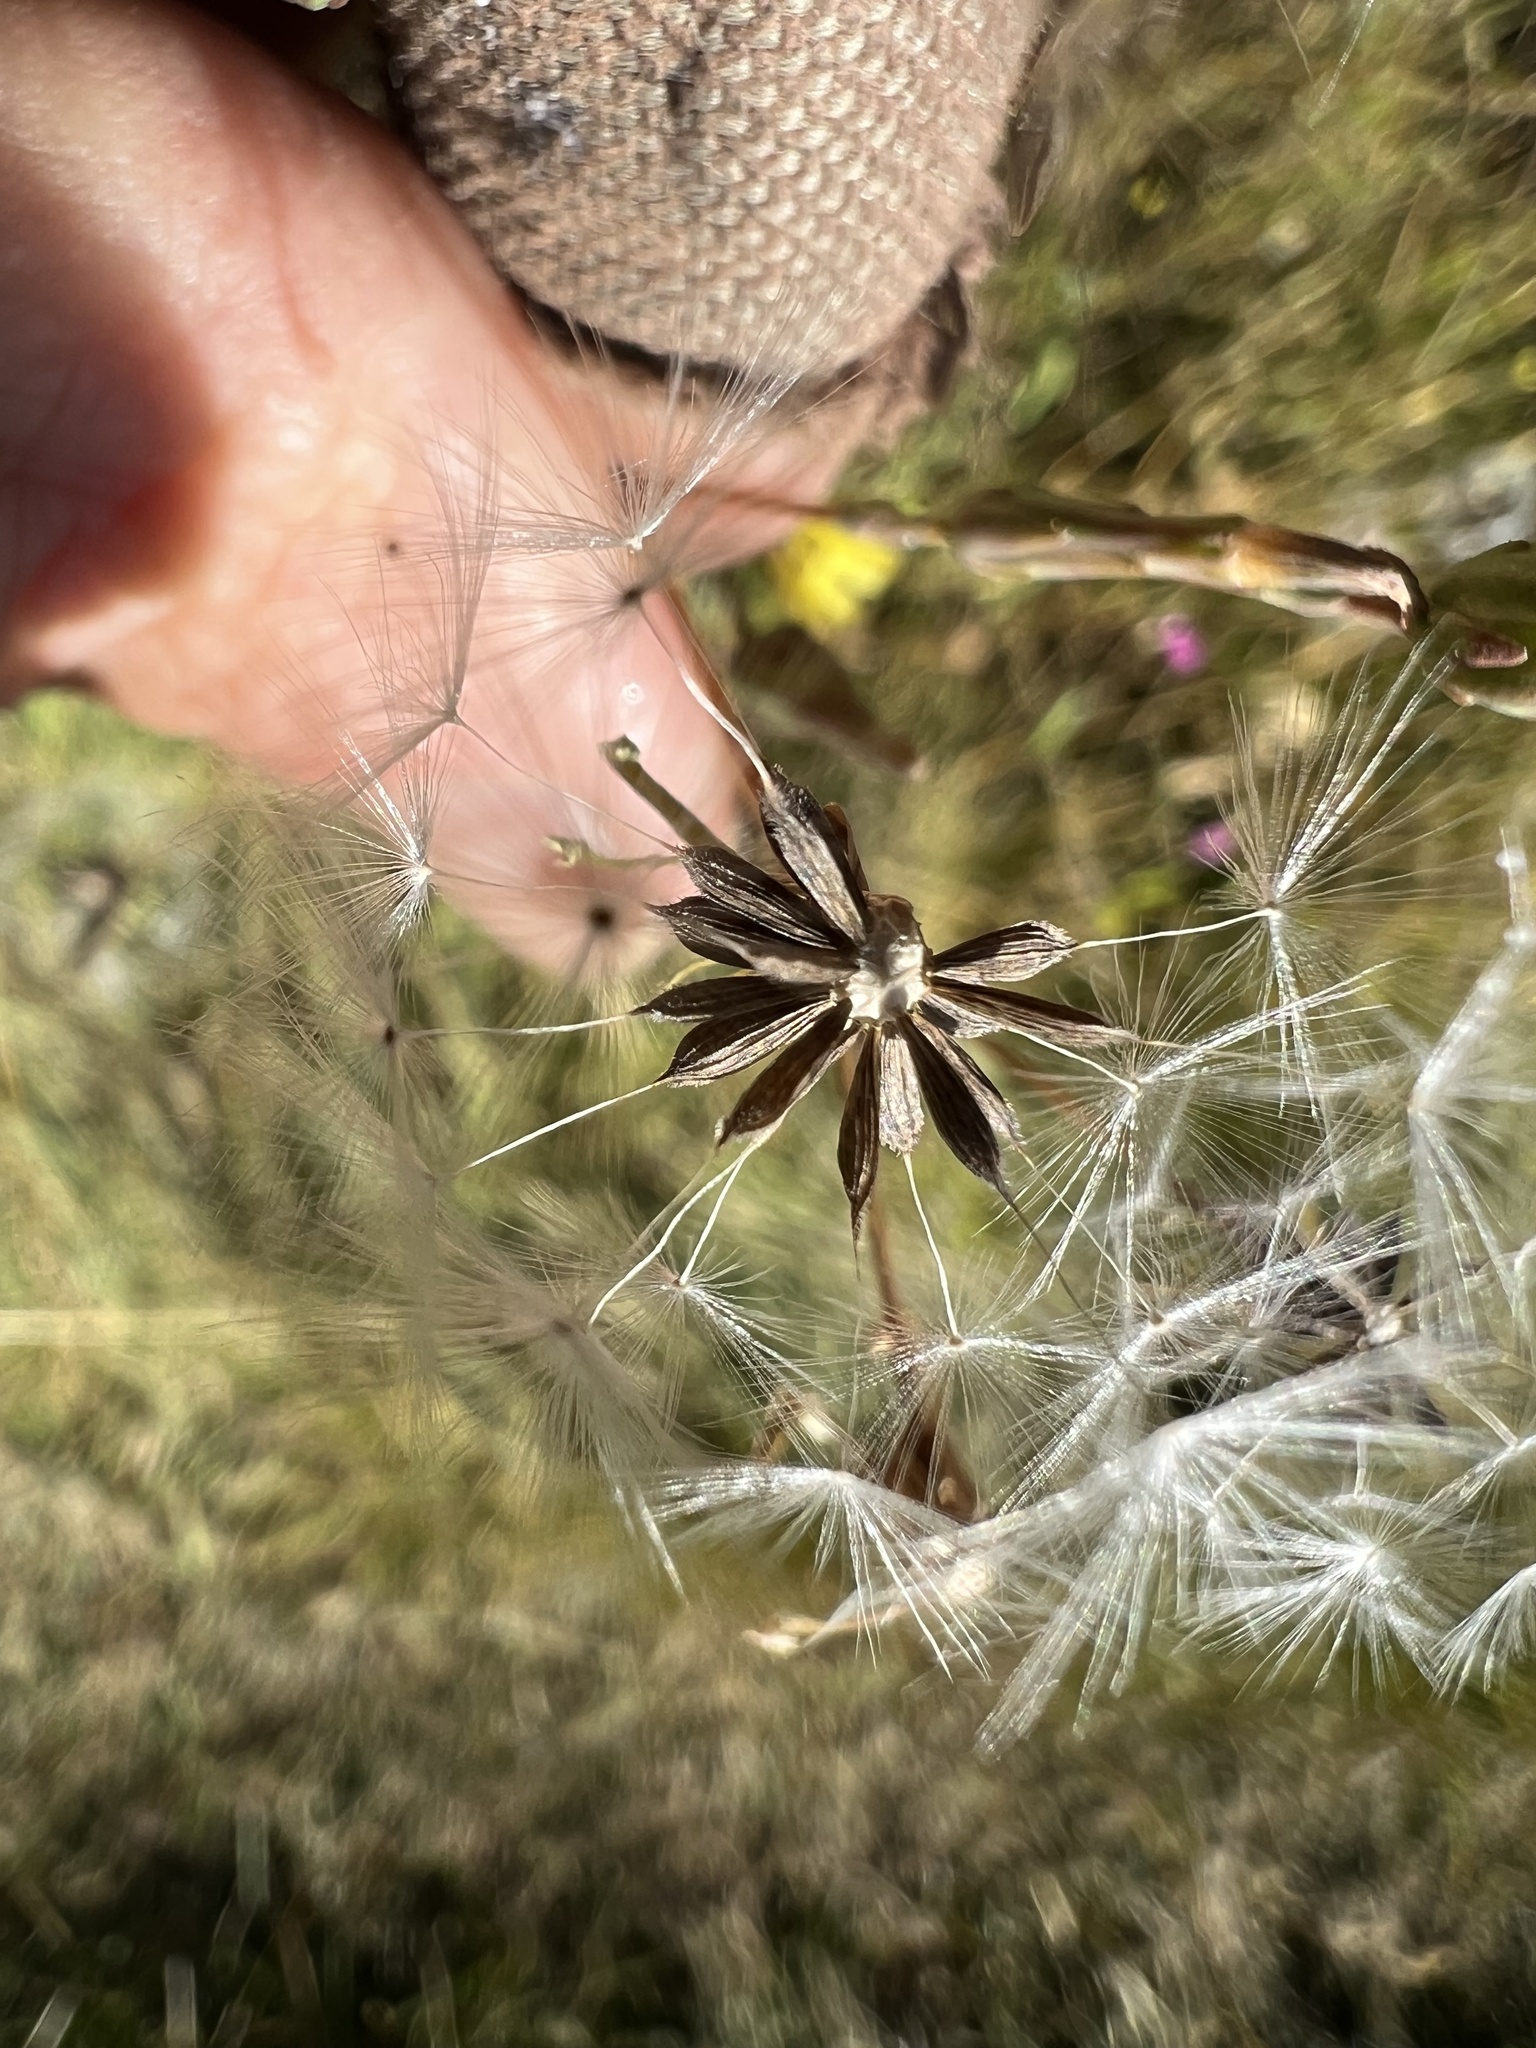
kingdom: Plantae
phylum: Tracheophyta
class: Magnoliopsida
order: Asterales
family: Asteraceae
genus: Lactuca
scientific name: Lactuca serriola
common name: Prickly lettuce
